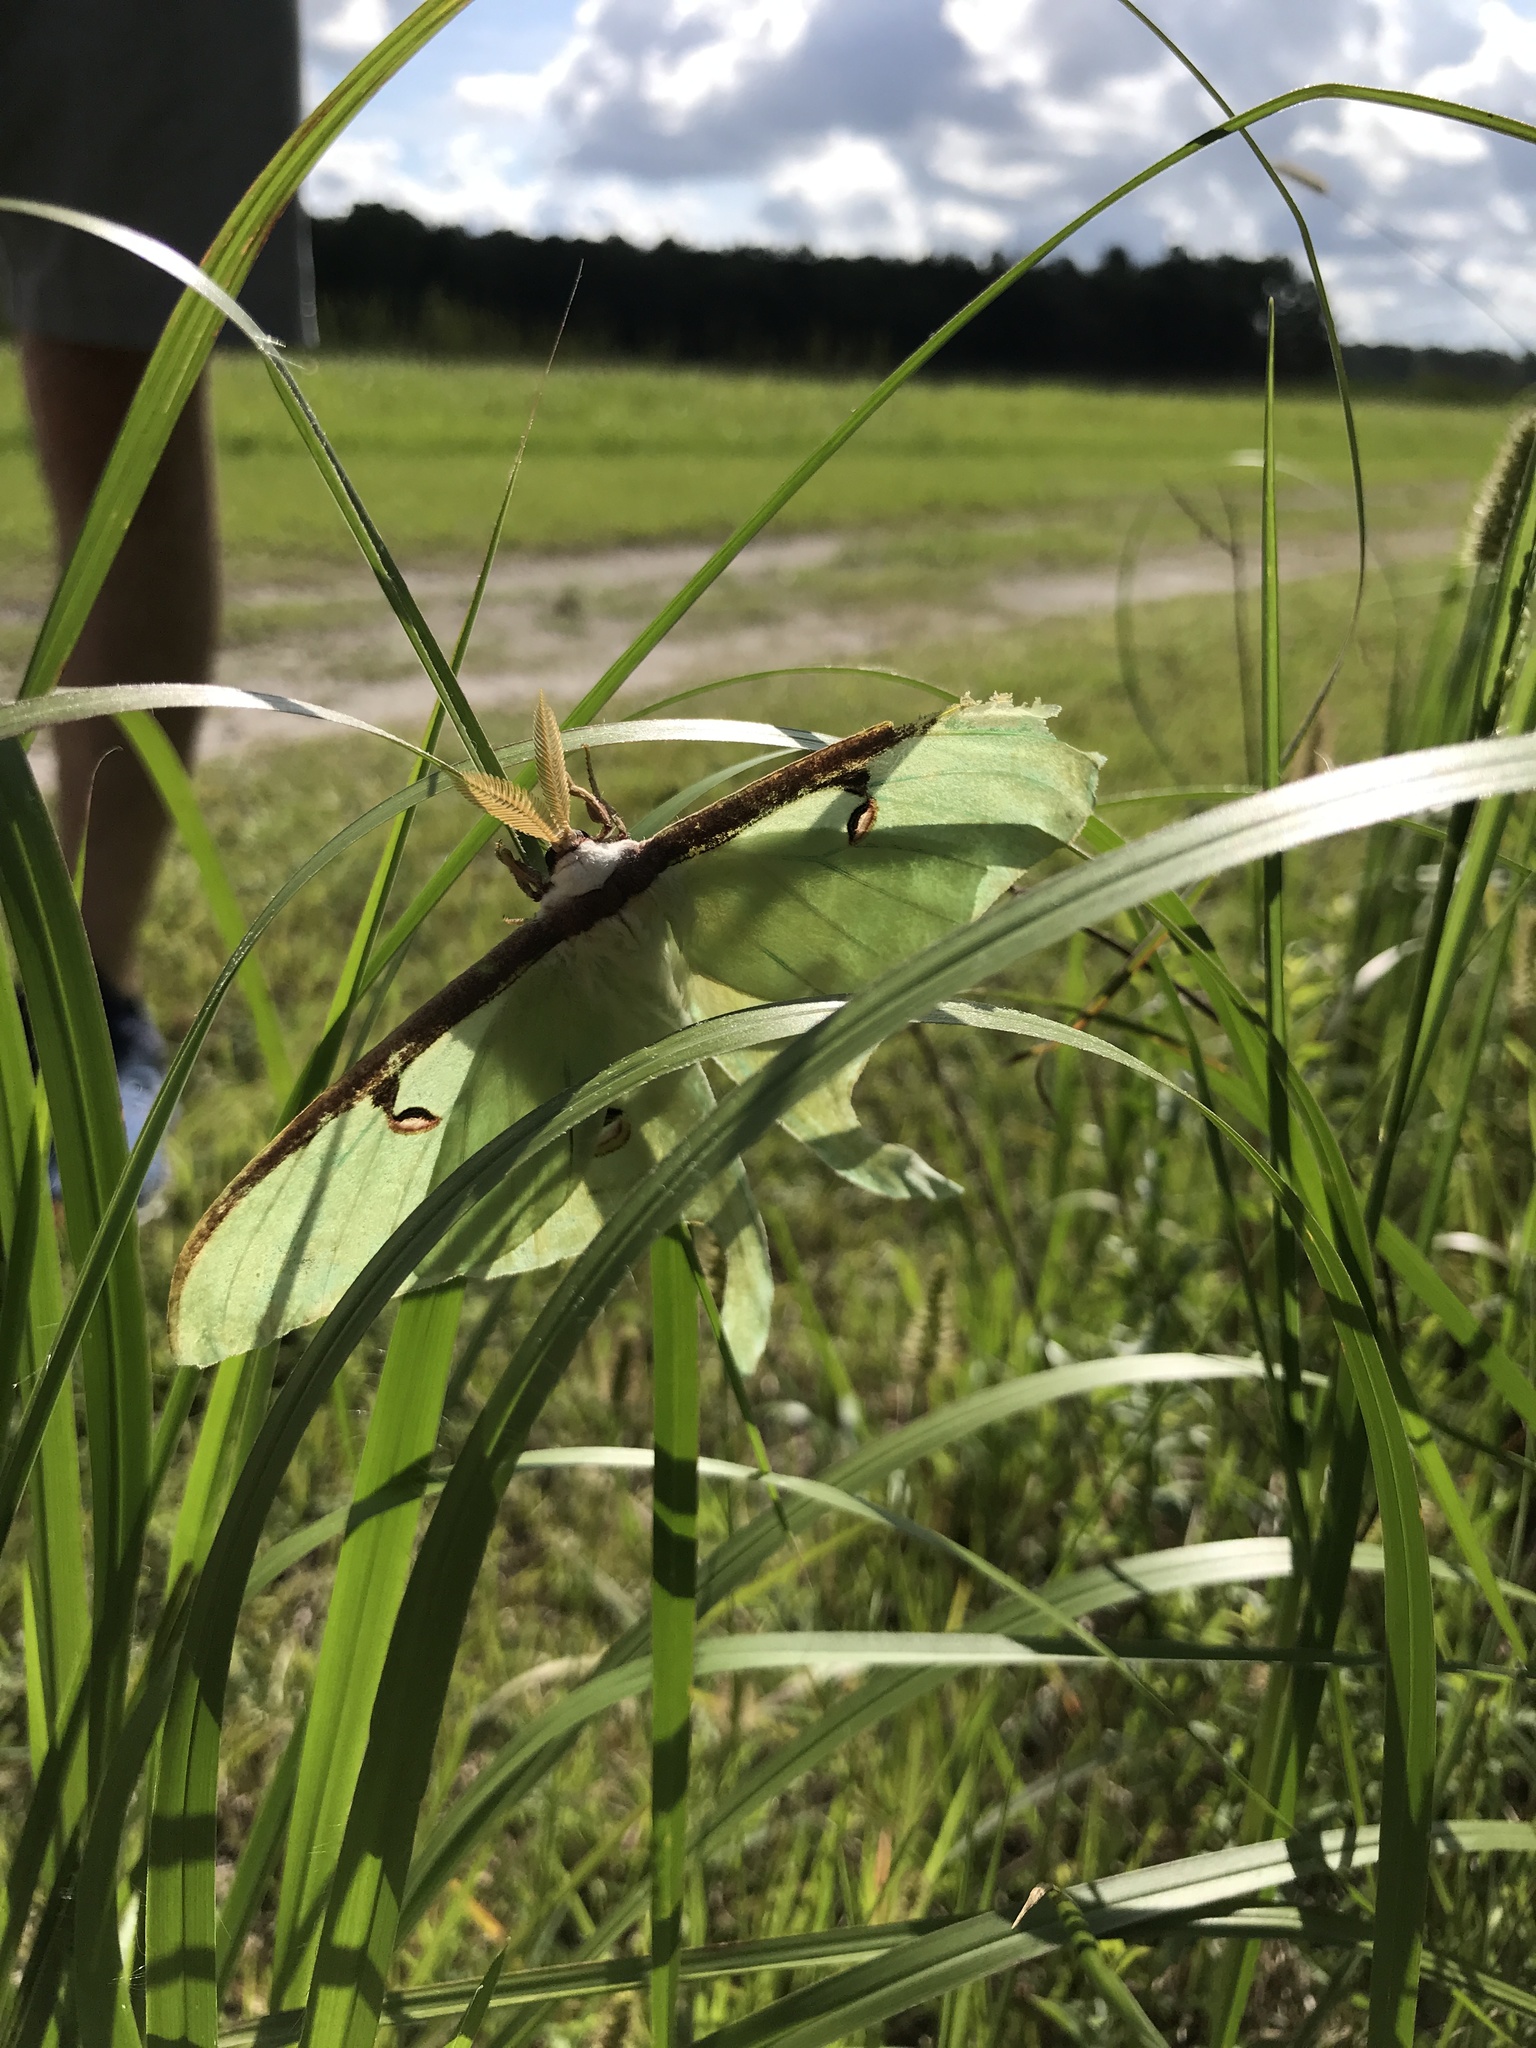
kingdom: Animalia
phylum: Arthropoda
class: Insecta
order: Lepidoptera
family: Saturniidae
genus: Actias
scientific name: Actias luna
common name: Luna moth
